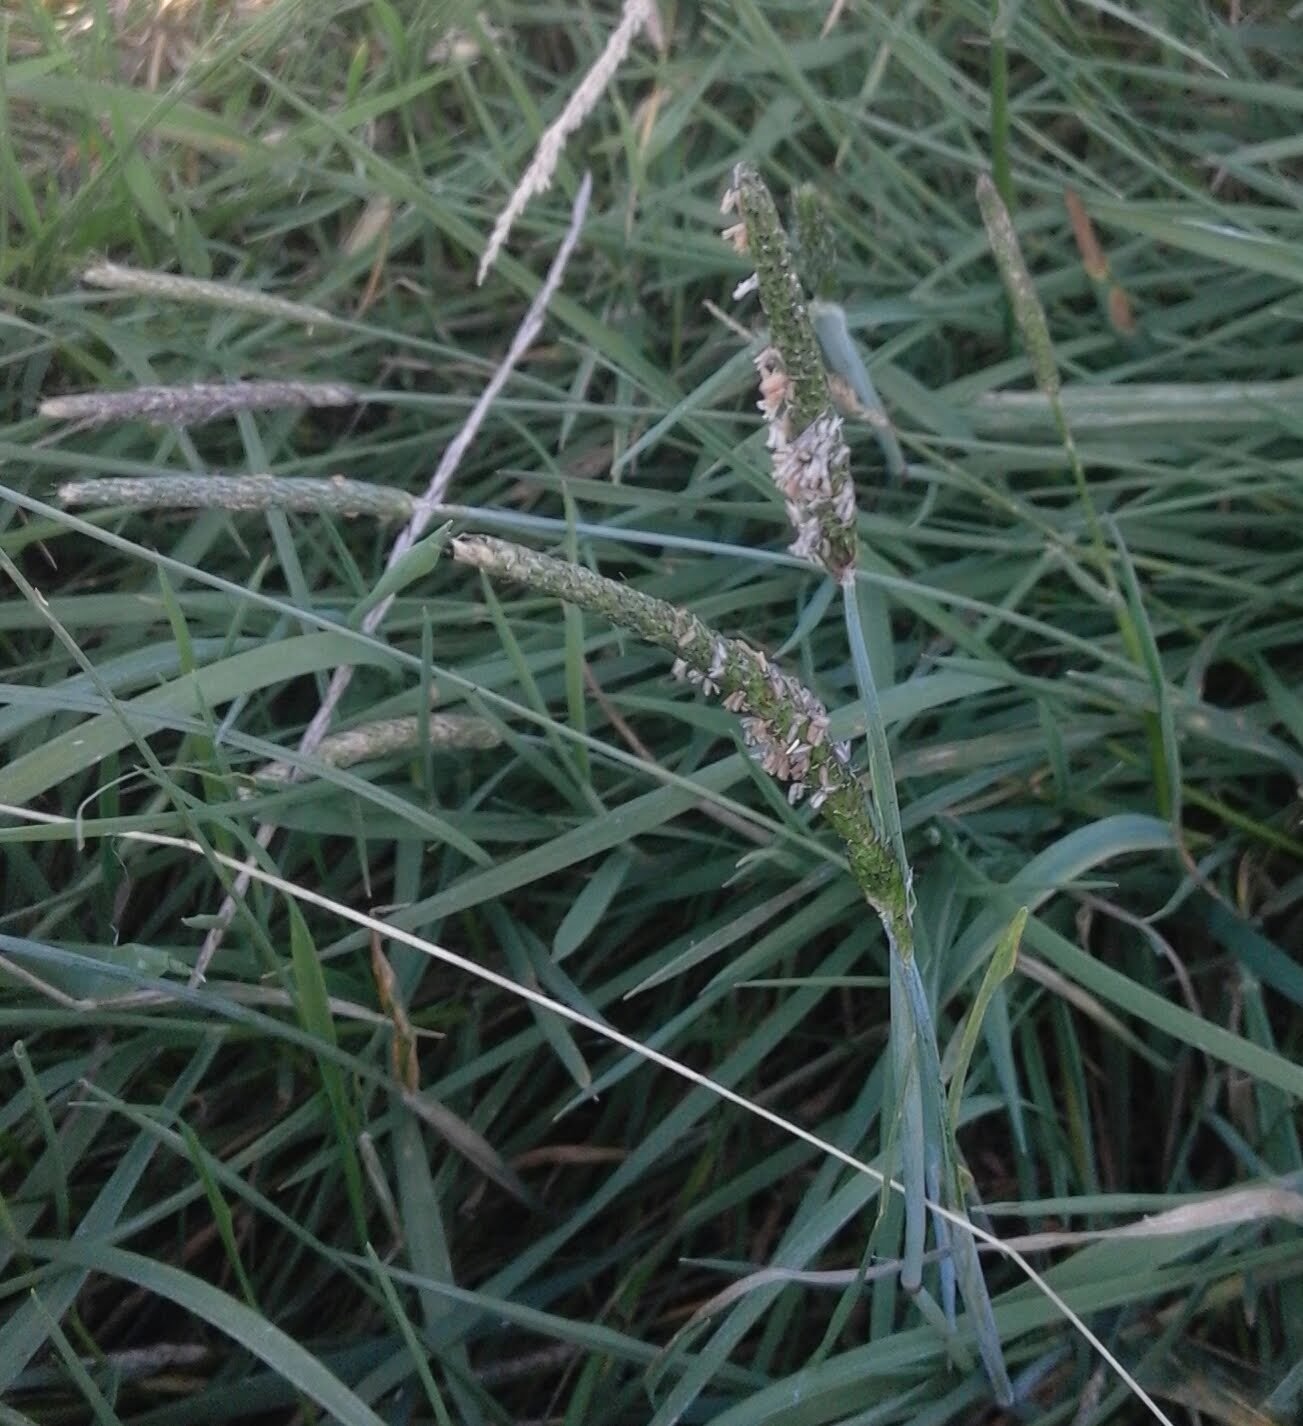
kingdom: Plantae
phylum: Tracheophyta
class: Liliopsida
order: Poales
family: Poaceae
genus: Alopecurus
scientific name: Alopecurus pratensis
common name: Meadow foxtail
